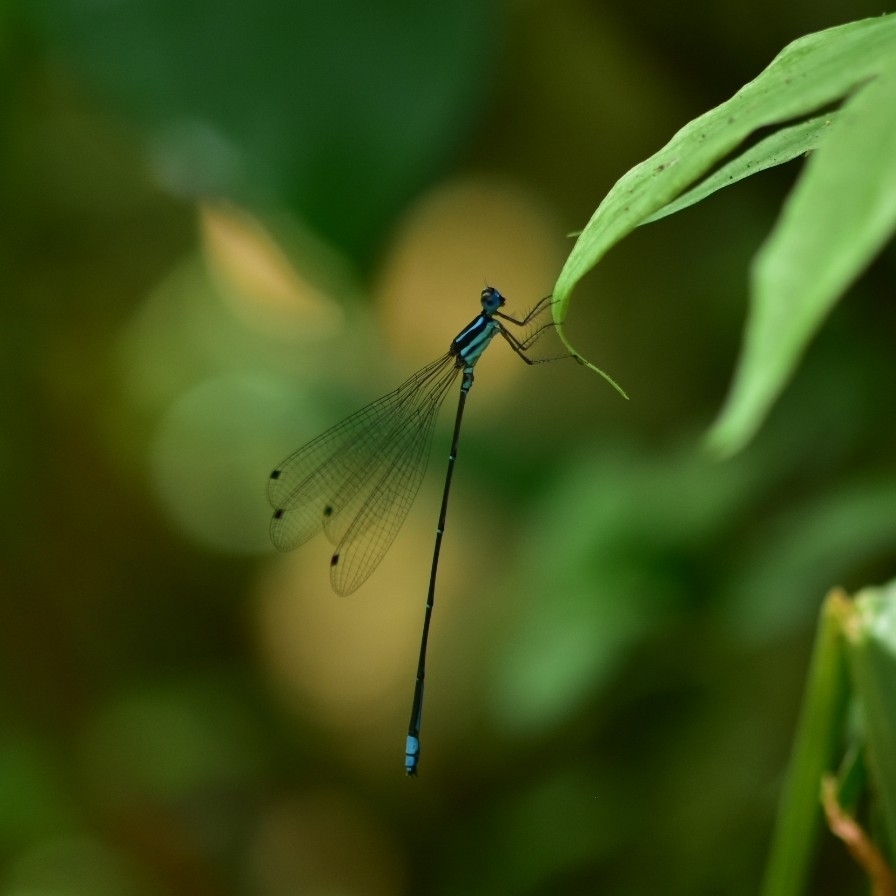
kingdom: Animalia
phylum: Arthropoda
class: Insecta
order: Odonata
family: Platycnemididae
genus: Caconeura
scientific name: Caconeura risi
